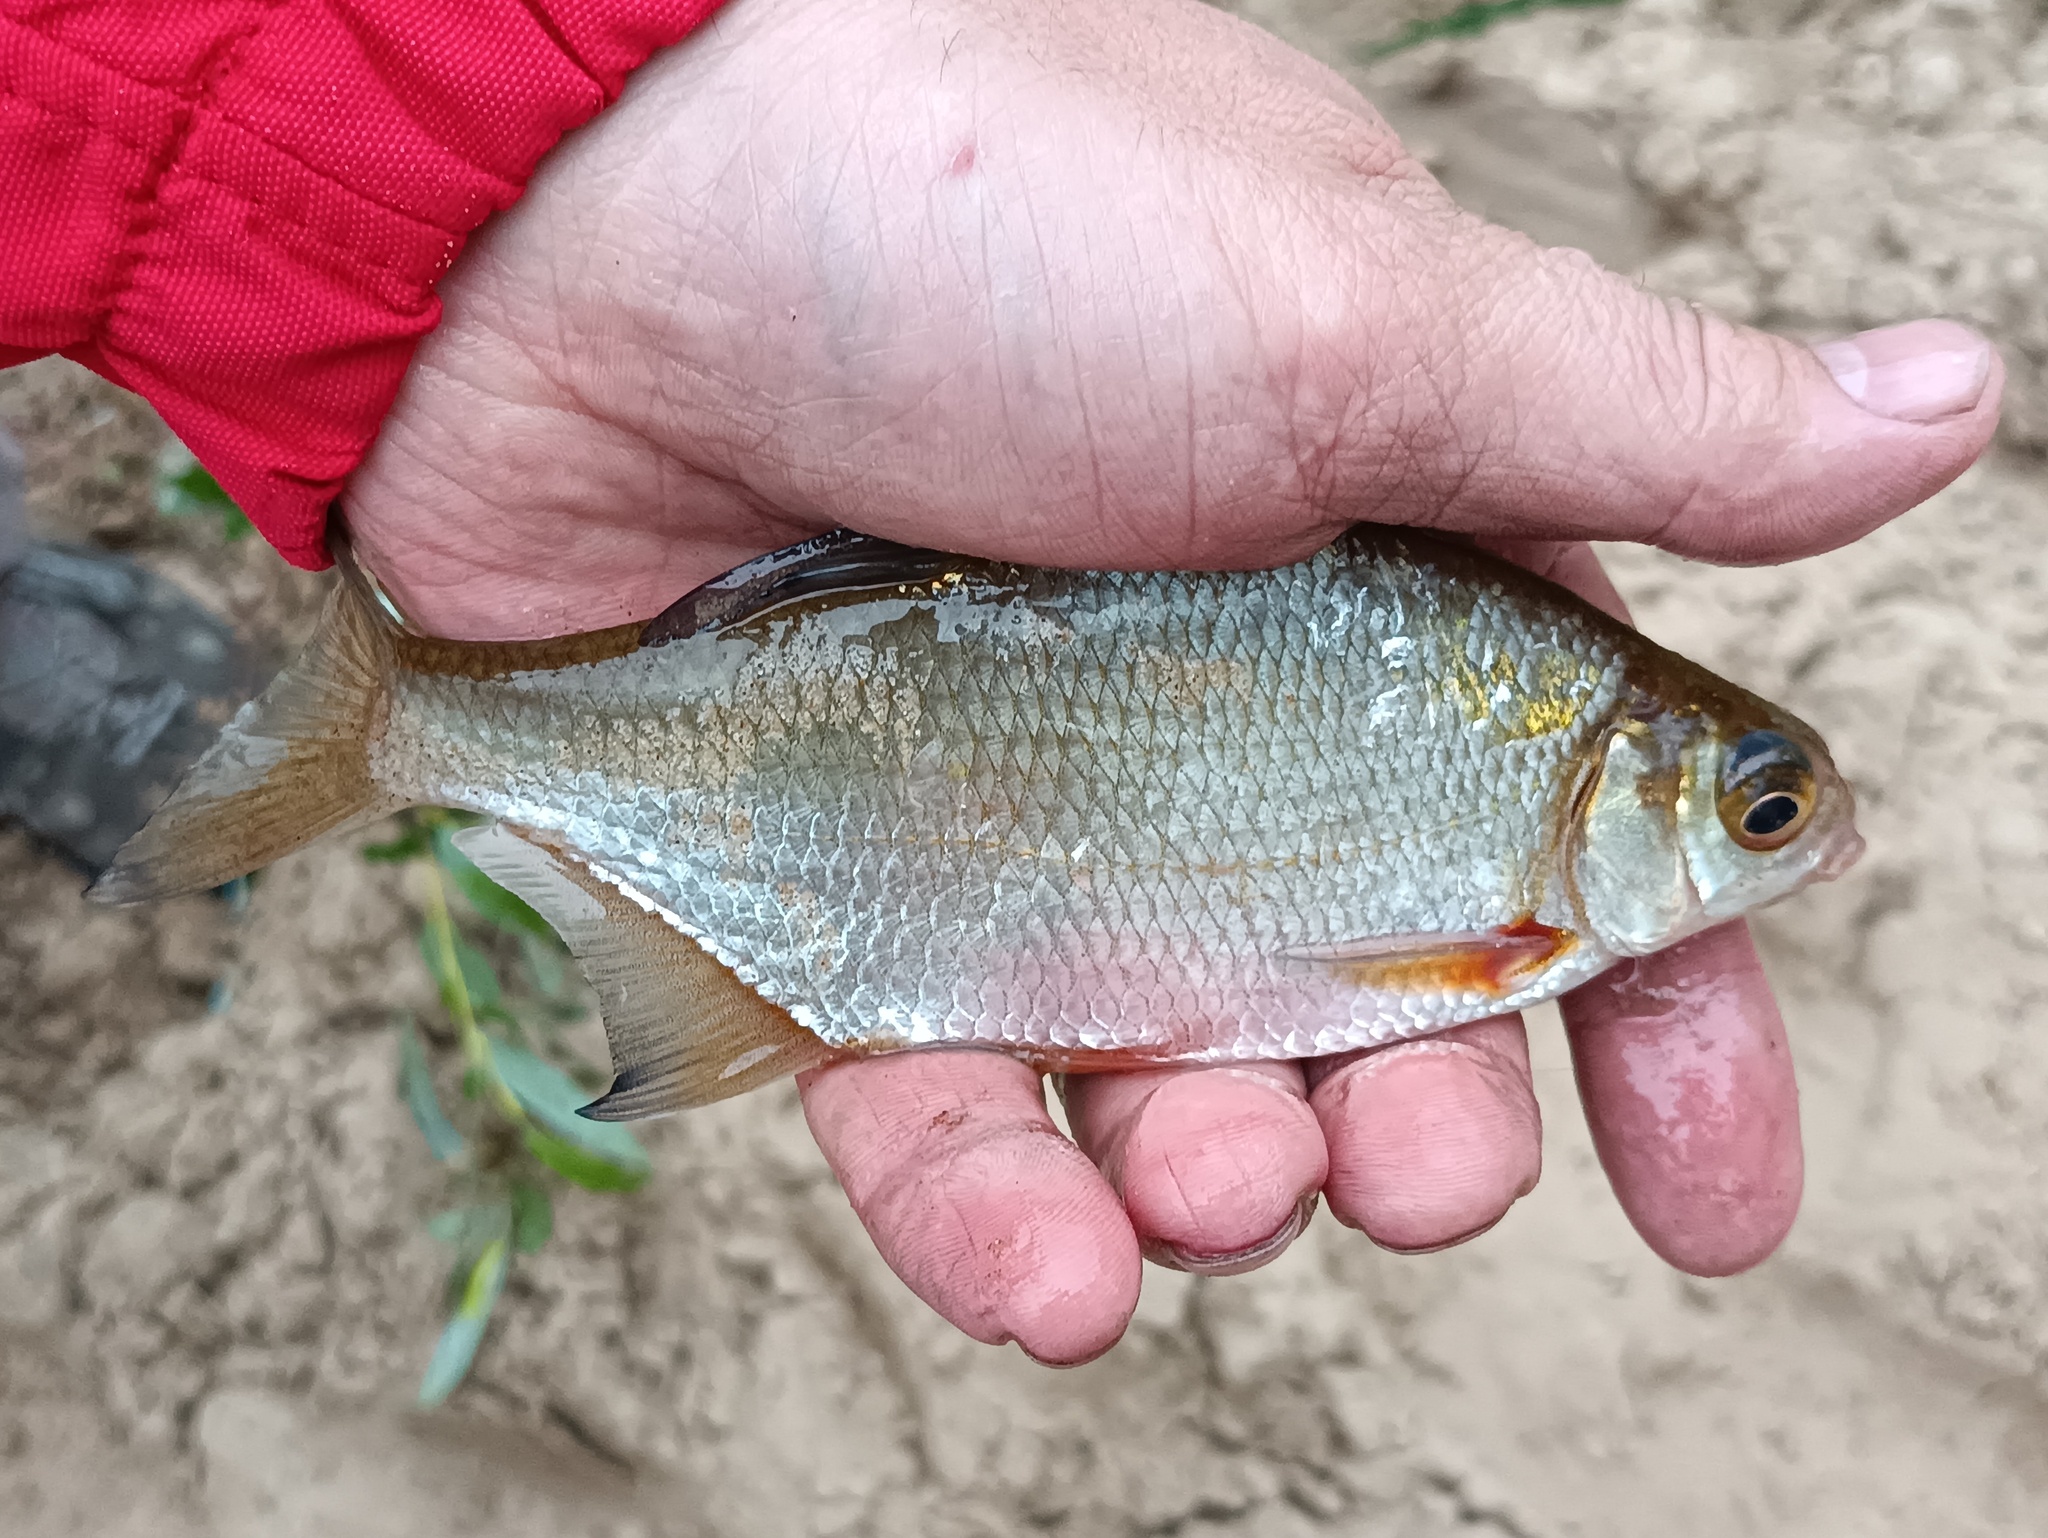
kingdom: Animalia
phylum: Chordata
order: Cypriniformes
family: Cyprinidae
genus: Blicca
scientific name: Blicca bjoerkna
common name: White bream
